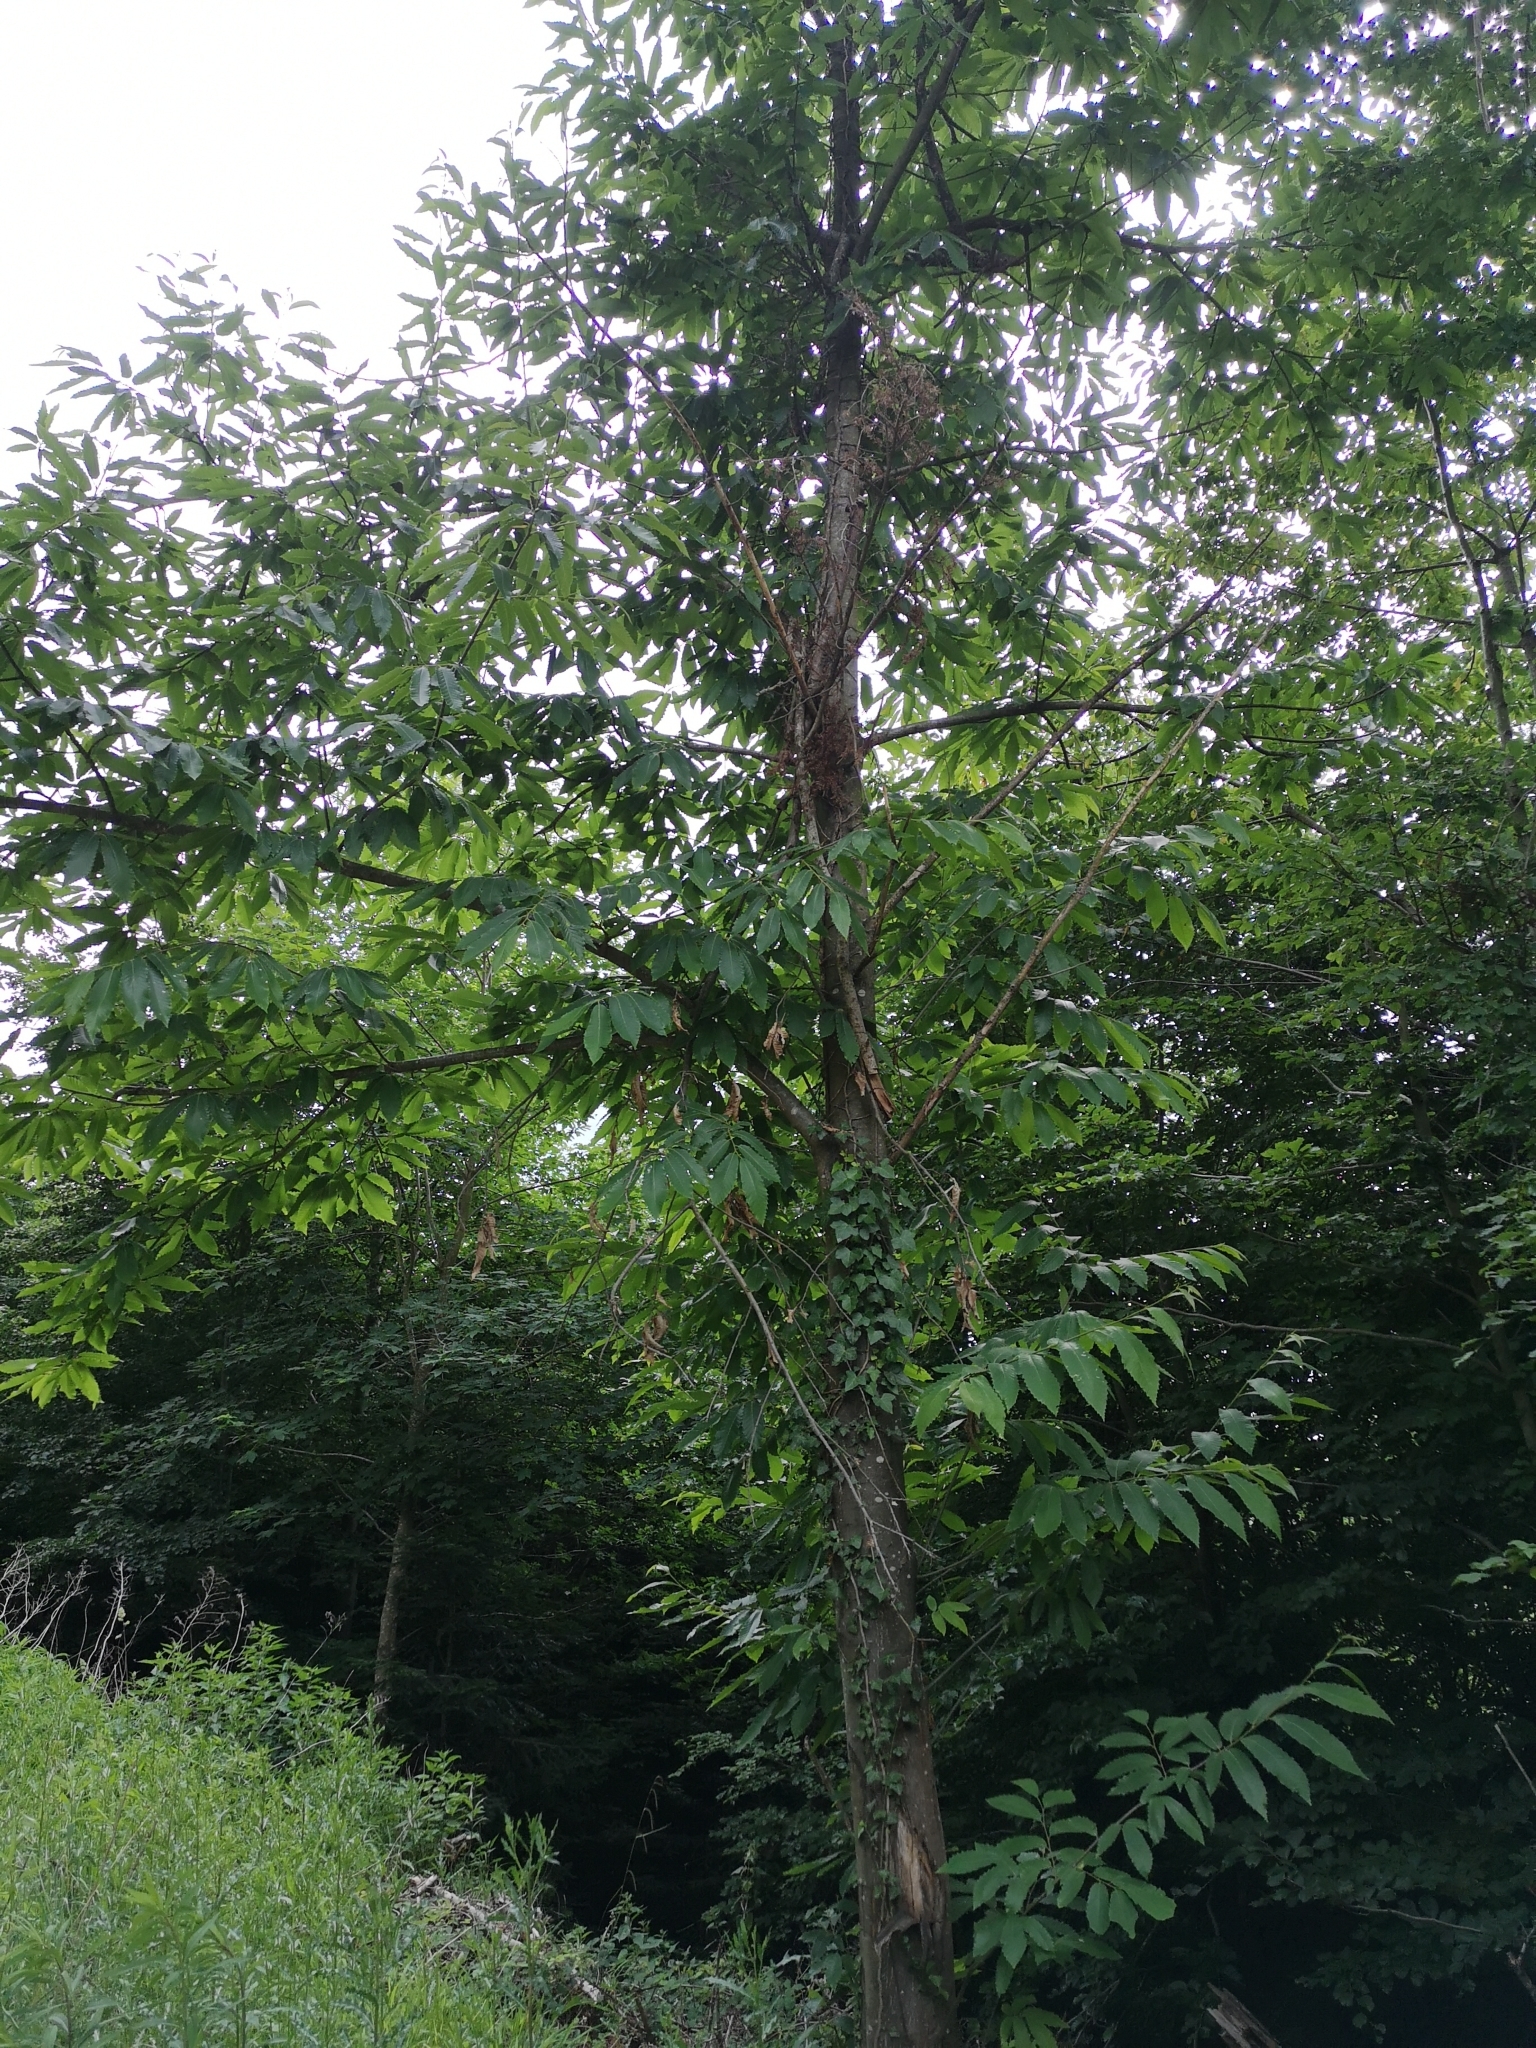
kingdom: Plantae
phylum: Tracheophyta
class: Magnoliopsida
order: Fagales
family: Fagaceae
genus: Castanea
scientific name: Castanea sativa
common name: Sweet chestnut
